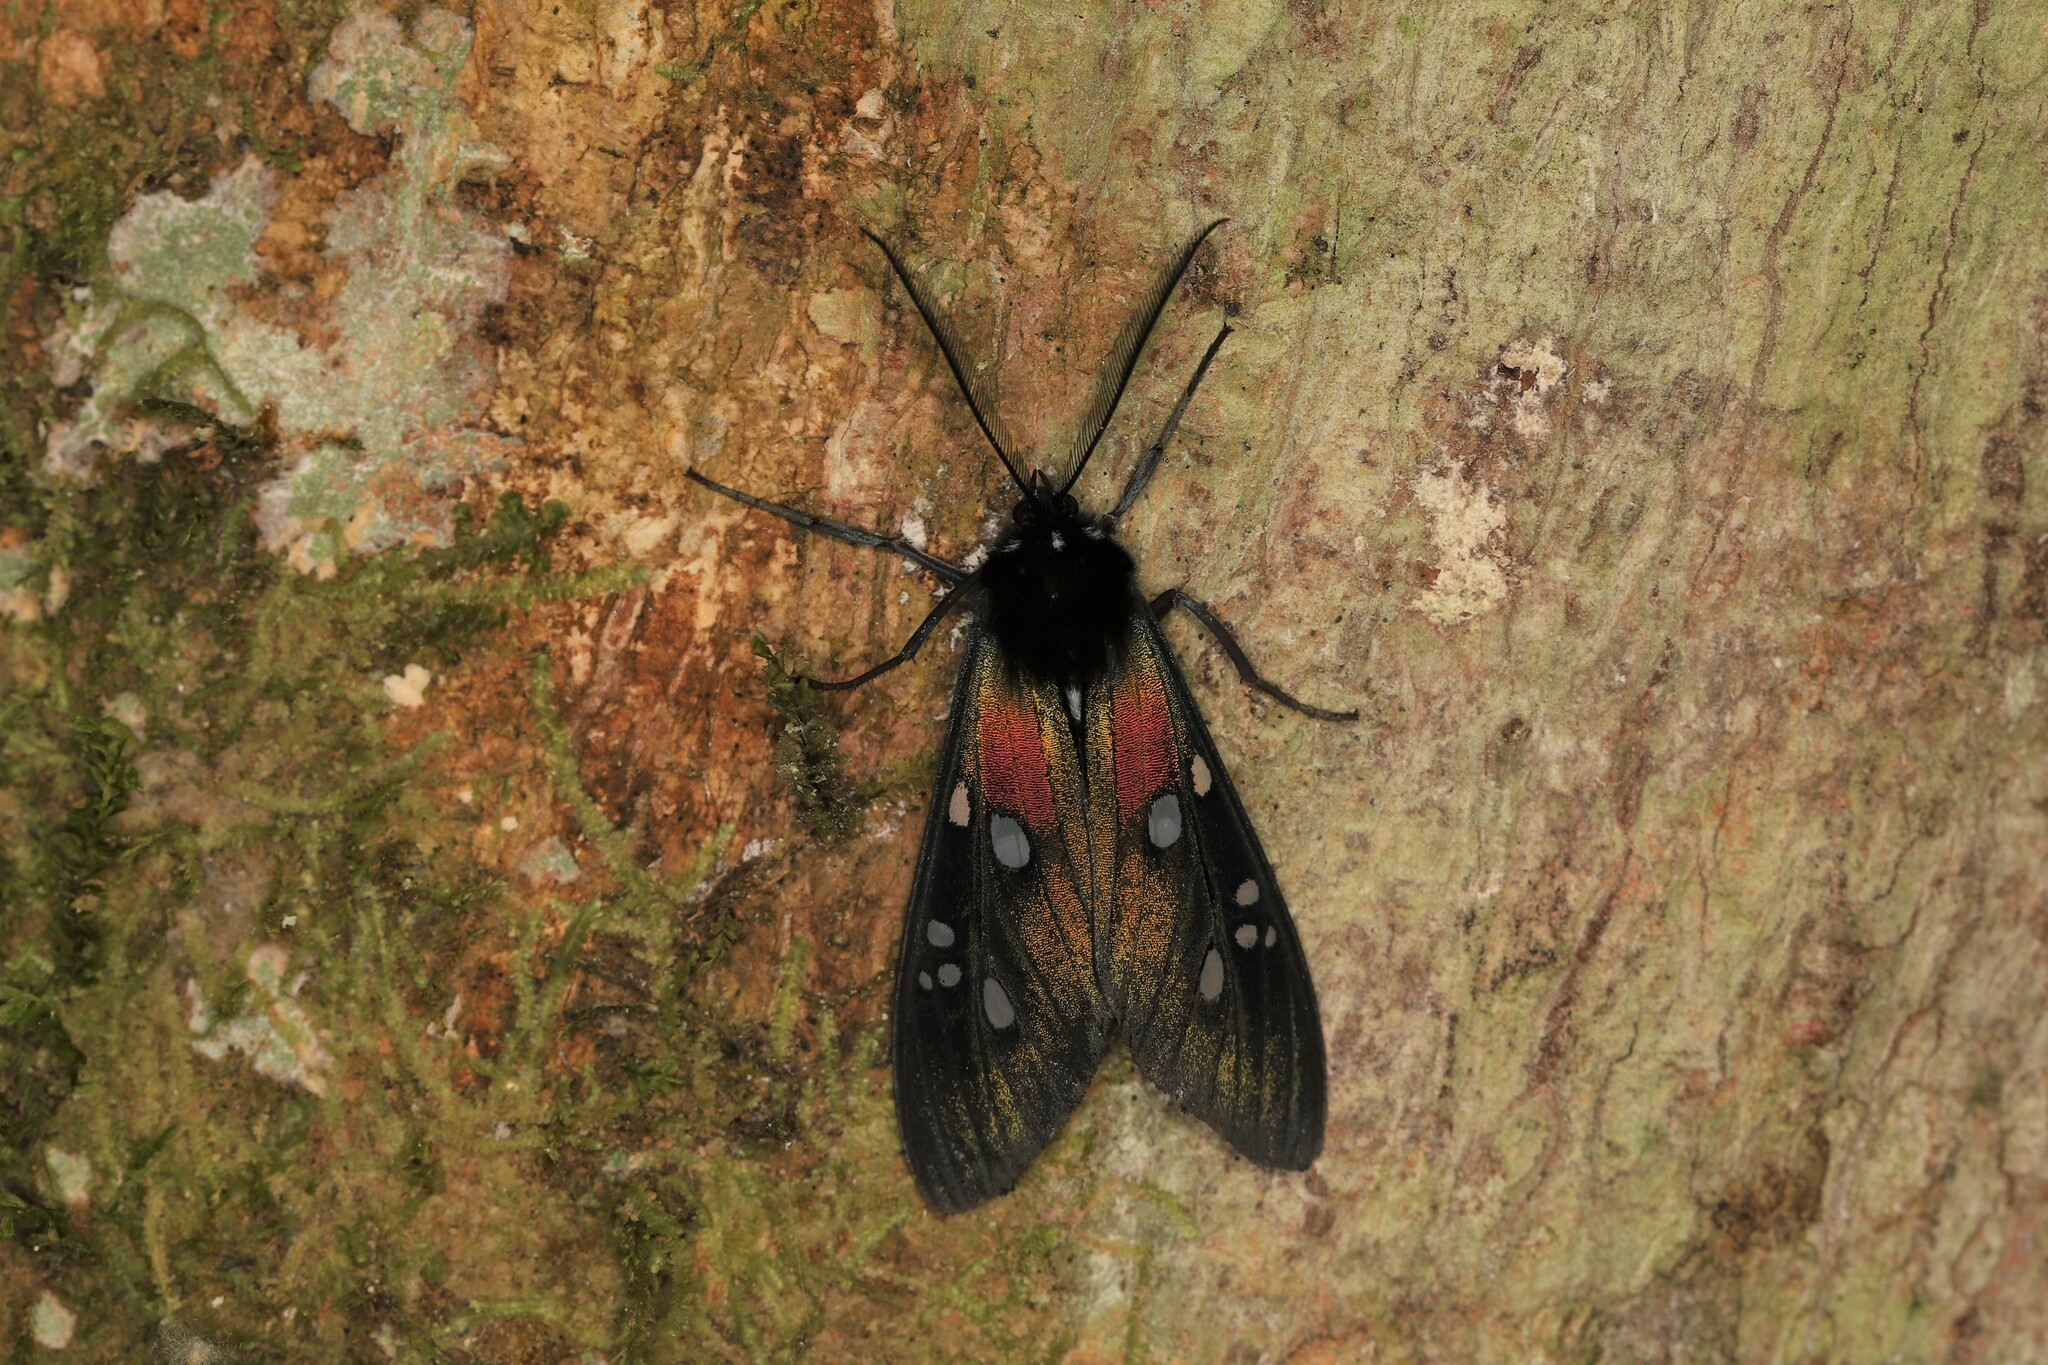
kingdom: Animalia
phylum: Arthropoda
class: Insecta
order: Lepidoptera
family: Erebidae
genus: Chrysocale
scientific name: Chrysocale gigantea
